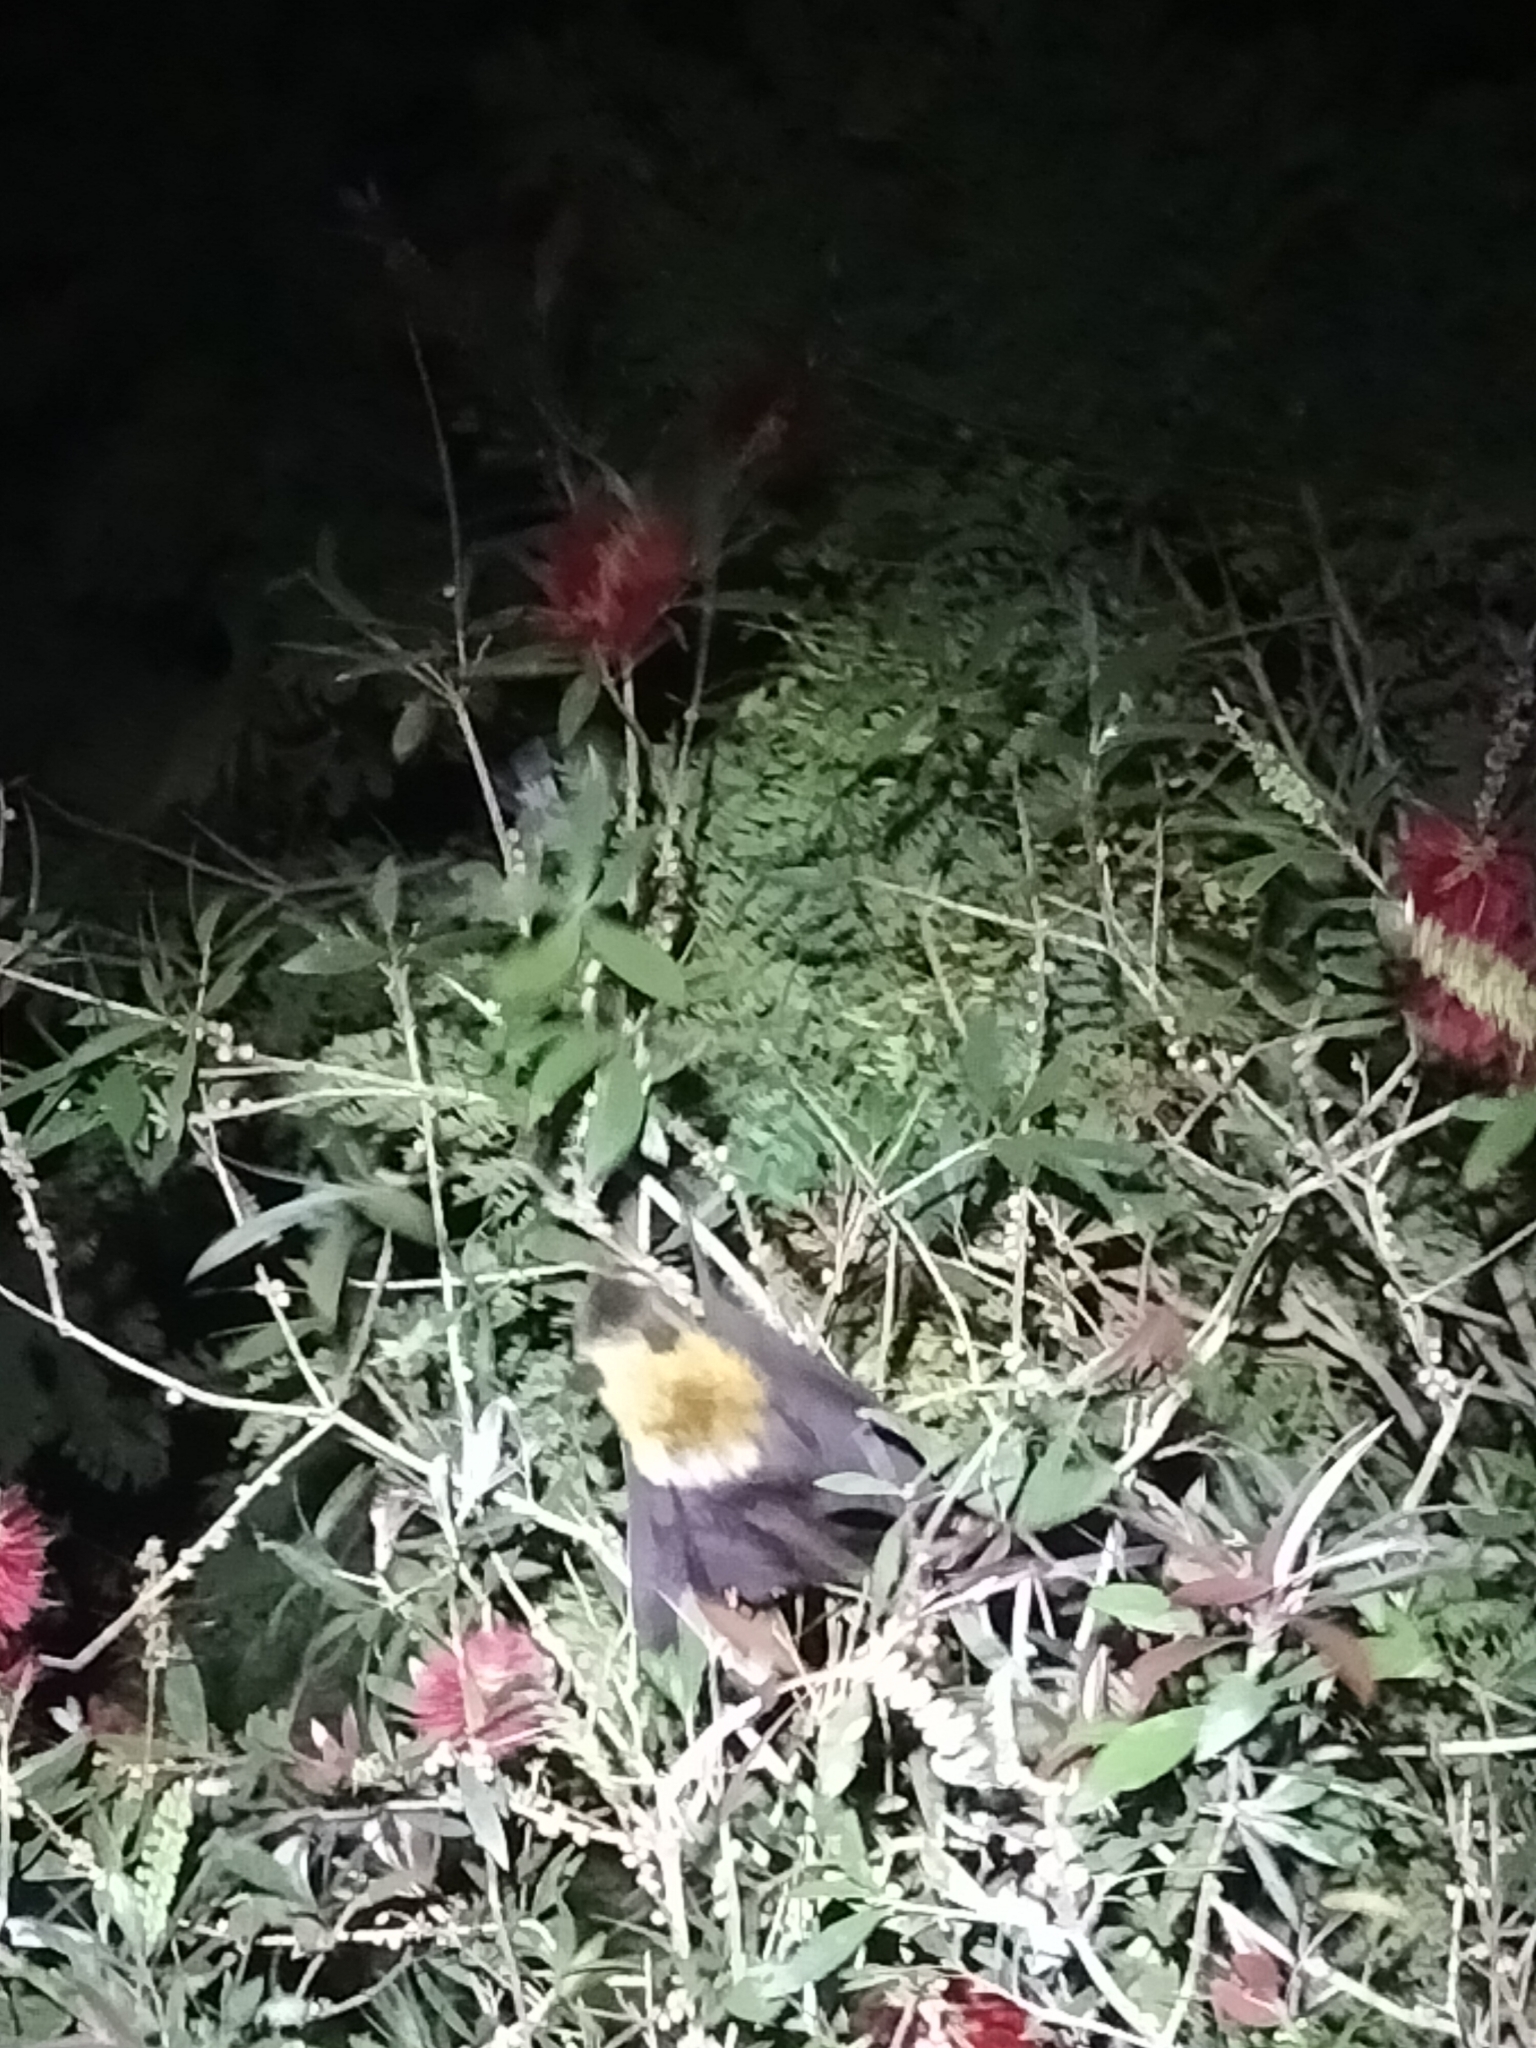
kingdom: Animalia
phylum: Chordata
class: Mammalia
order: Chiroptera
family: Pteropodidae
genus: Pteropus
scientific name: Pteropus conspicillatus
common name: Spectacled flying fox
